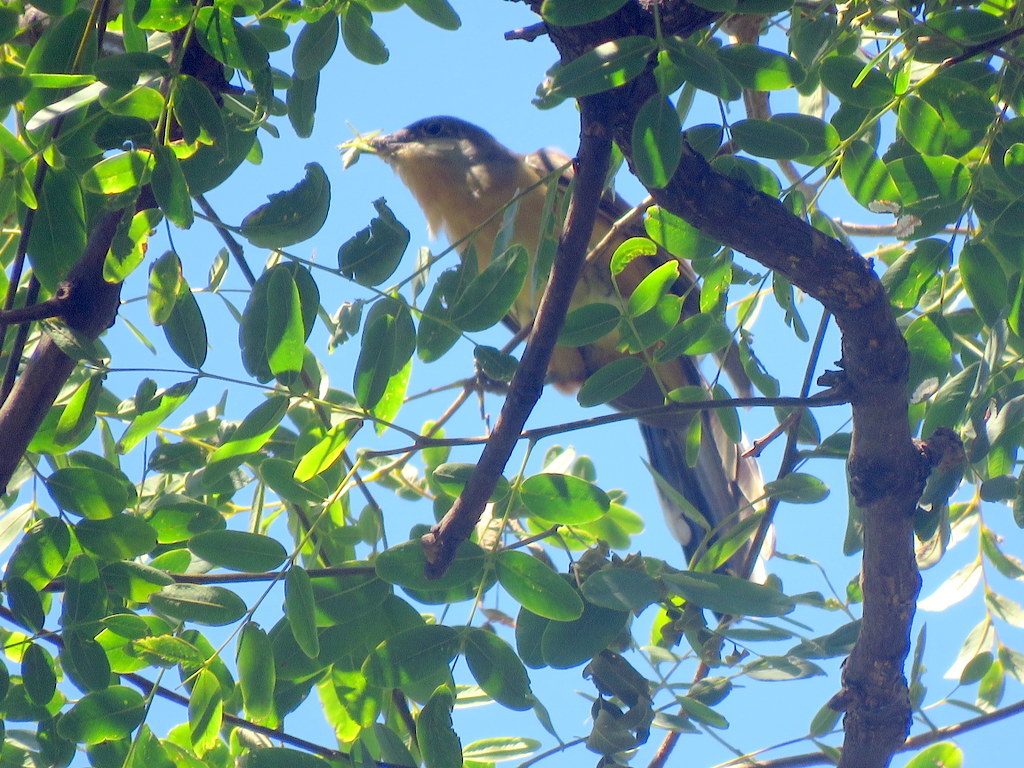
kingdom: Animalia
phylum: Chordata
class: Aves
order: Cuculiformes
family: Cuculidae
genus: Coccyzus
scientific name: Coccyzus melacoryphus
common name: Dark-billed cuckoo
